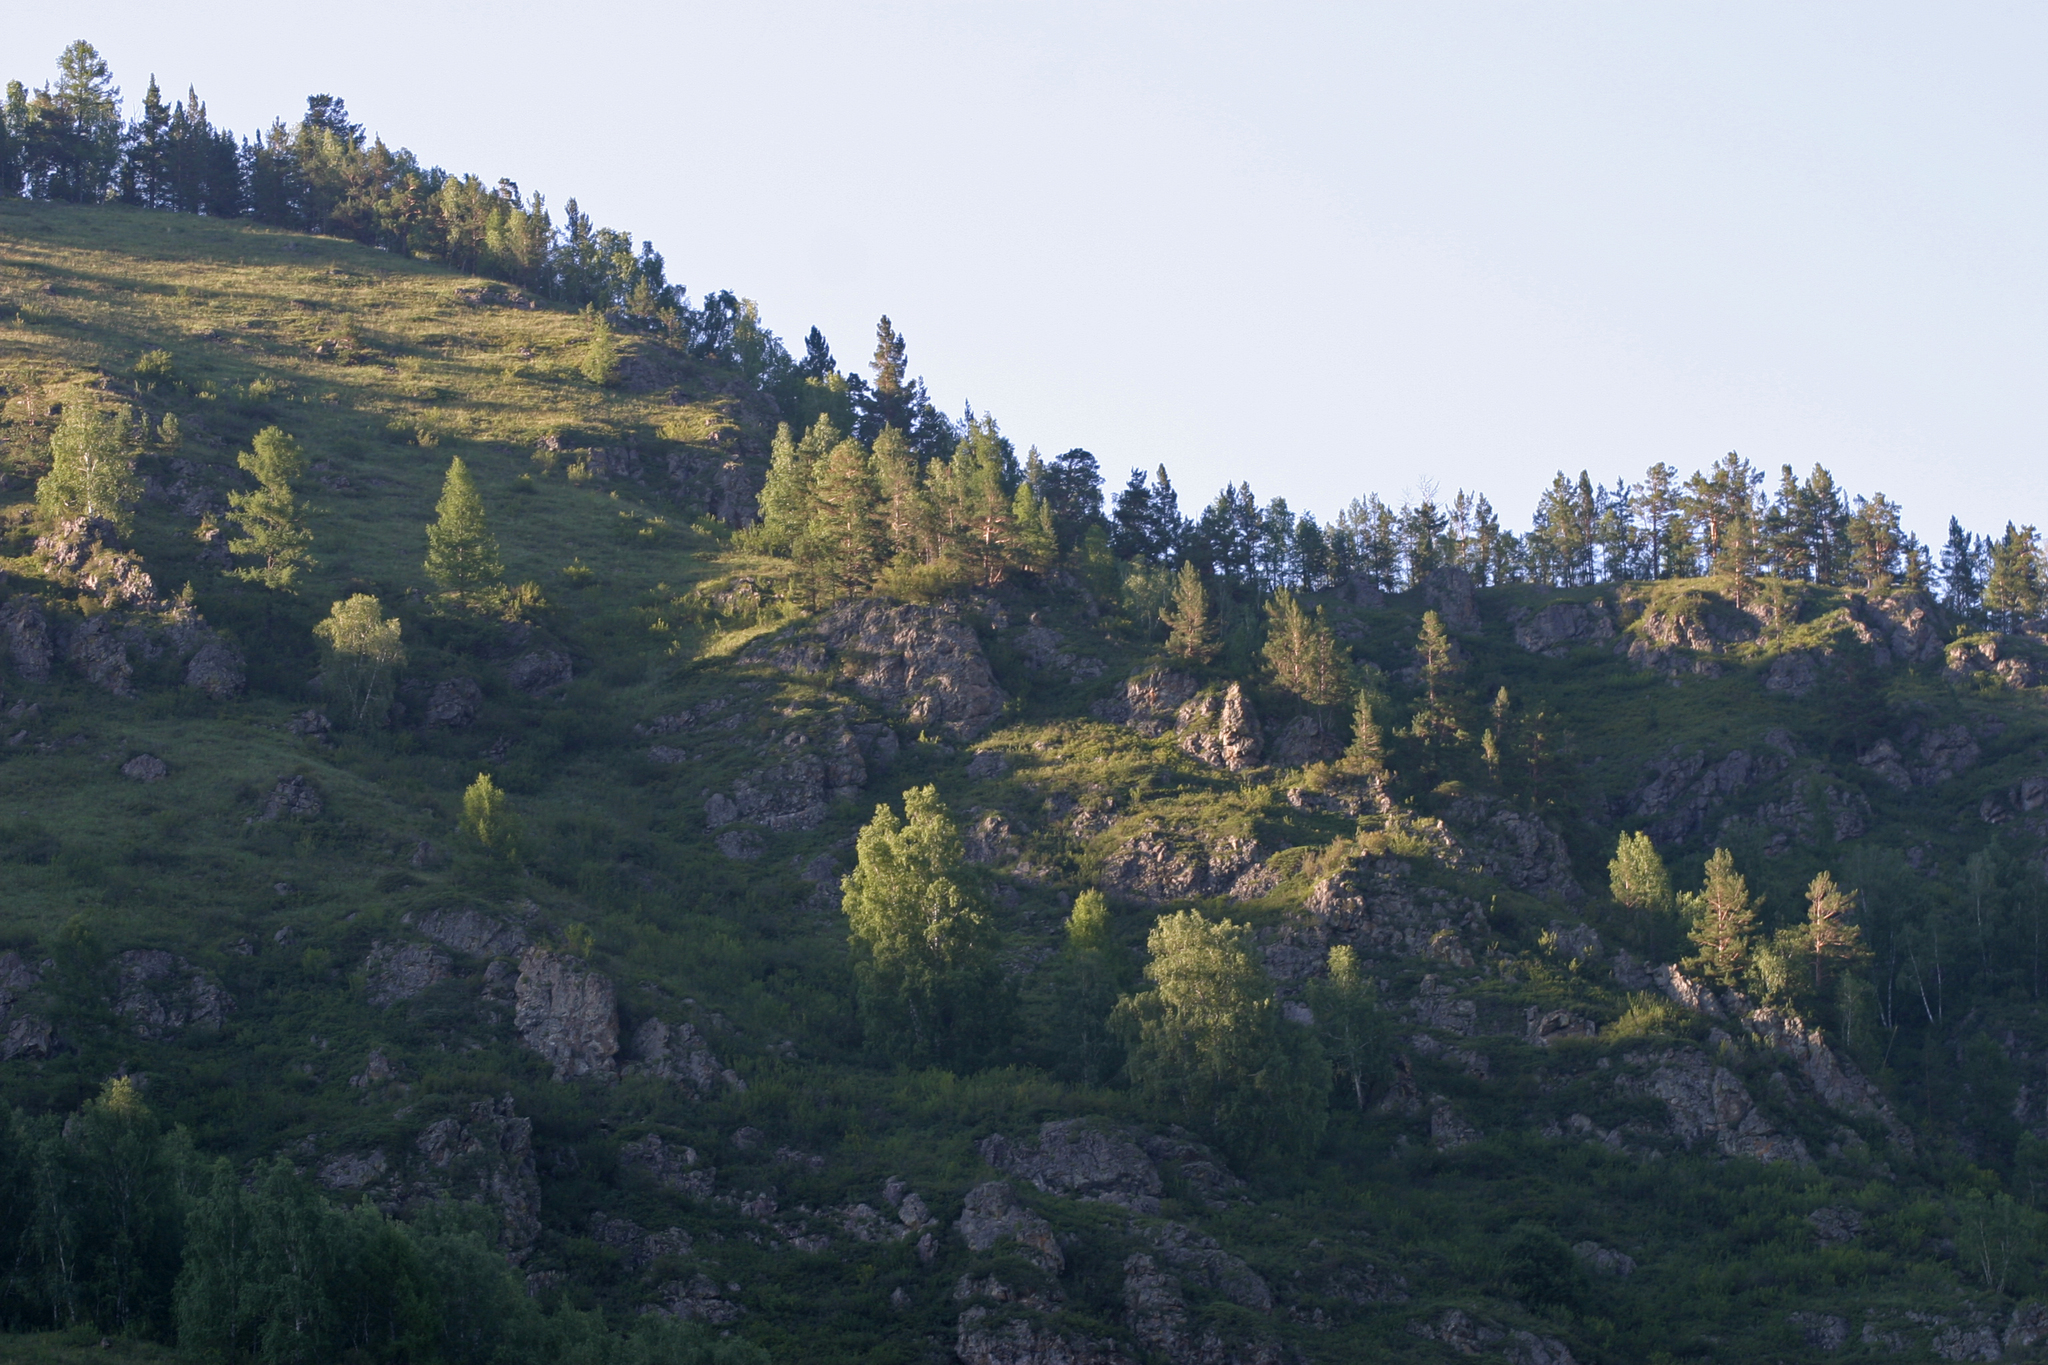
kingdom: Plantae
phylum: Tracheophyta
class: Magnoliopsida
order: Fagales
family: Betulaceae
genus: Betula
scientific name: Betula pendula
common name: Silver birch
